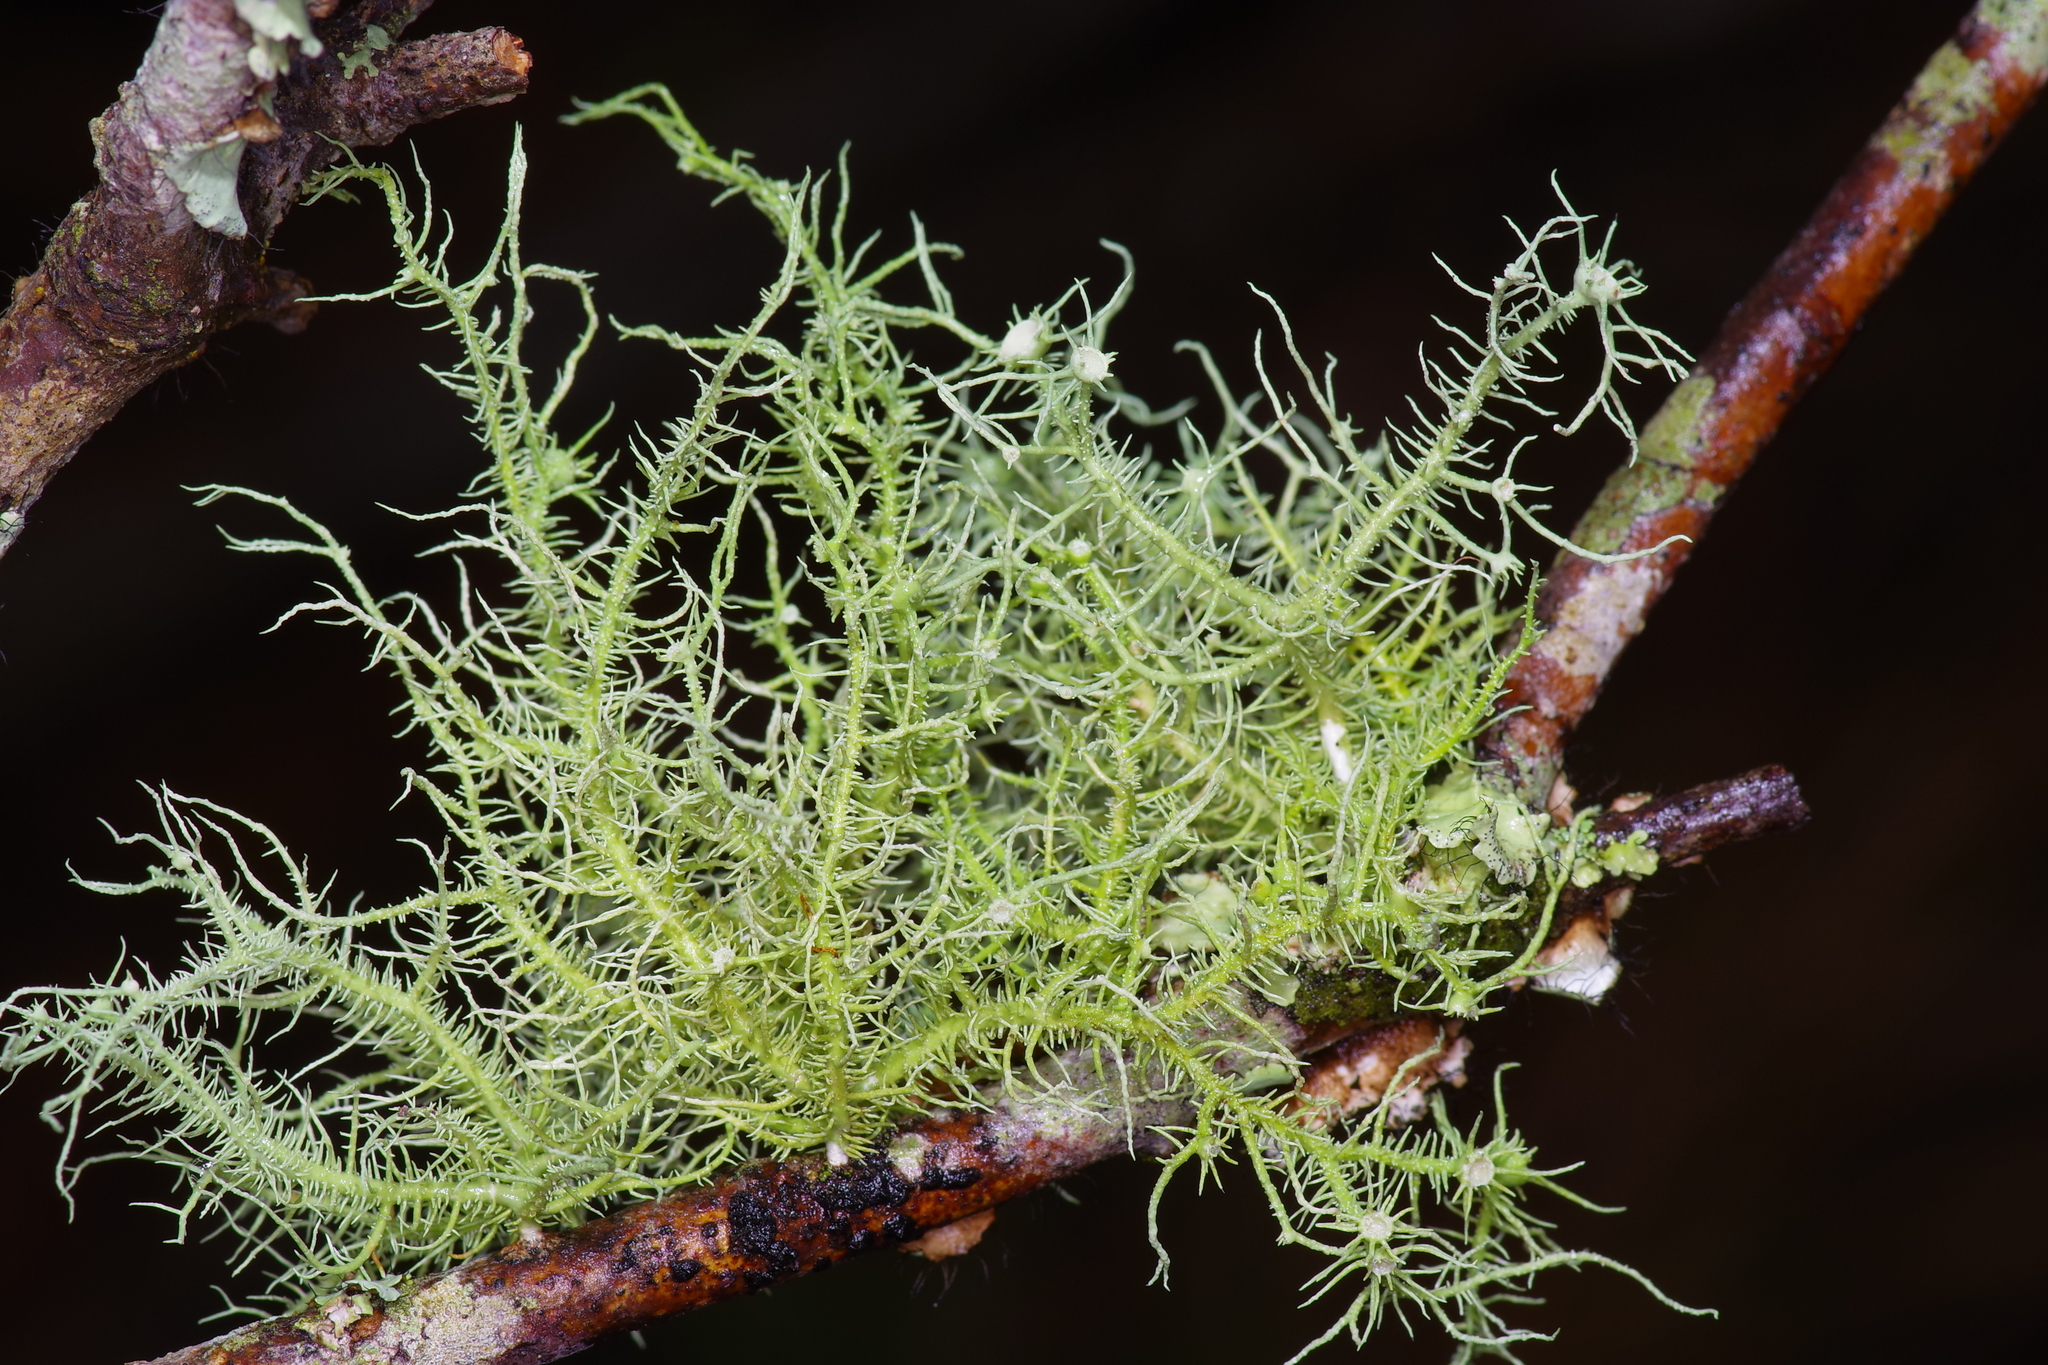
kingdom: Fungi
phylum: Ascomycota
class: Lecanoromycetes
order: Lecanorales
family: Parmeliaceae
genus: Usnea
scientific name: Usnea strigosa
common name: Bushy beard lichen
